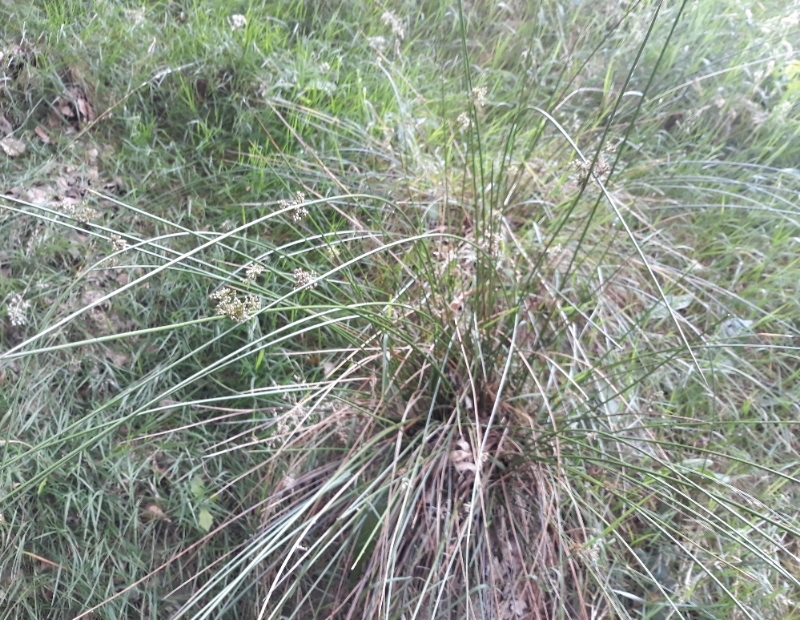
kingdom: Plantae
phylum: Tracheophyta
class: Liliopsida
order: Poales
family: Juncaceae
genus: Juncus
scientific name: Juncus effusus
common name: Soft rush
